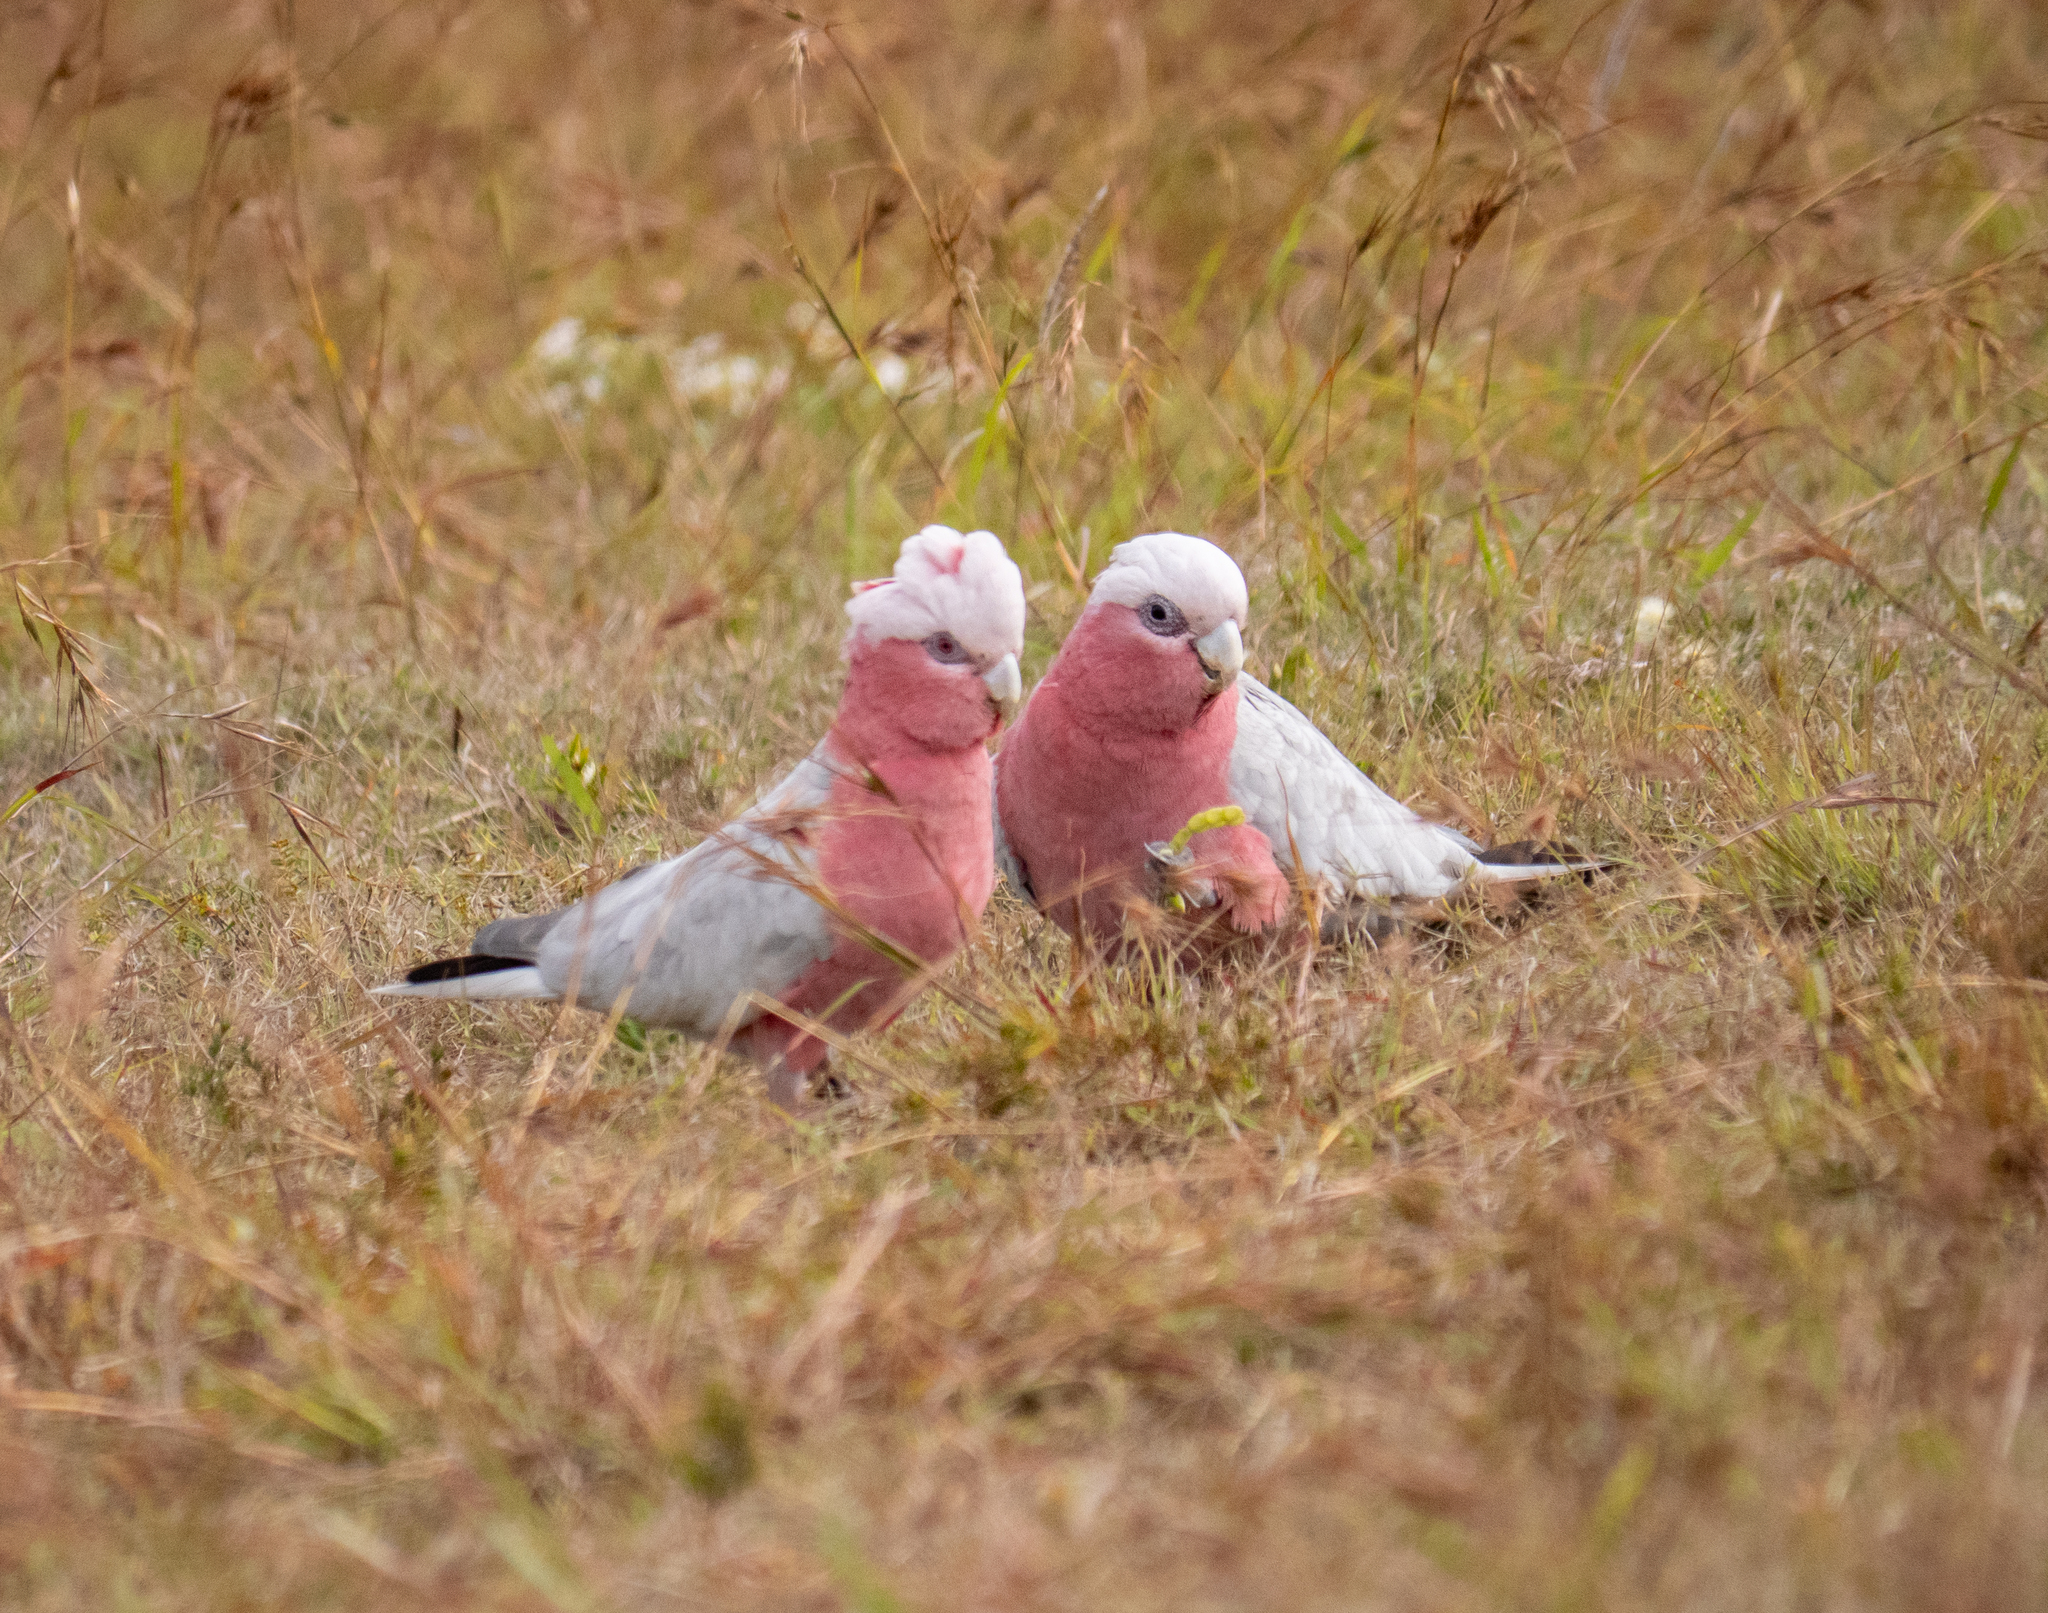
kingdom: Animalia
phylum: Chordata
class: Aves
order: Psittaciformes
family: Psittacidae
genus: Eolophus
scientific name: Eolophus roseicapilla
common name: Galah
